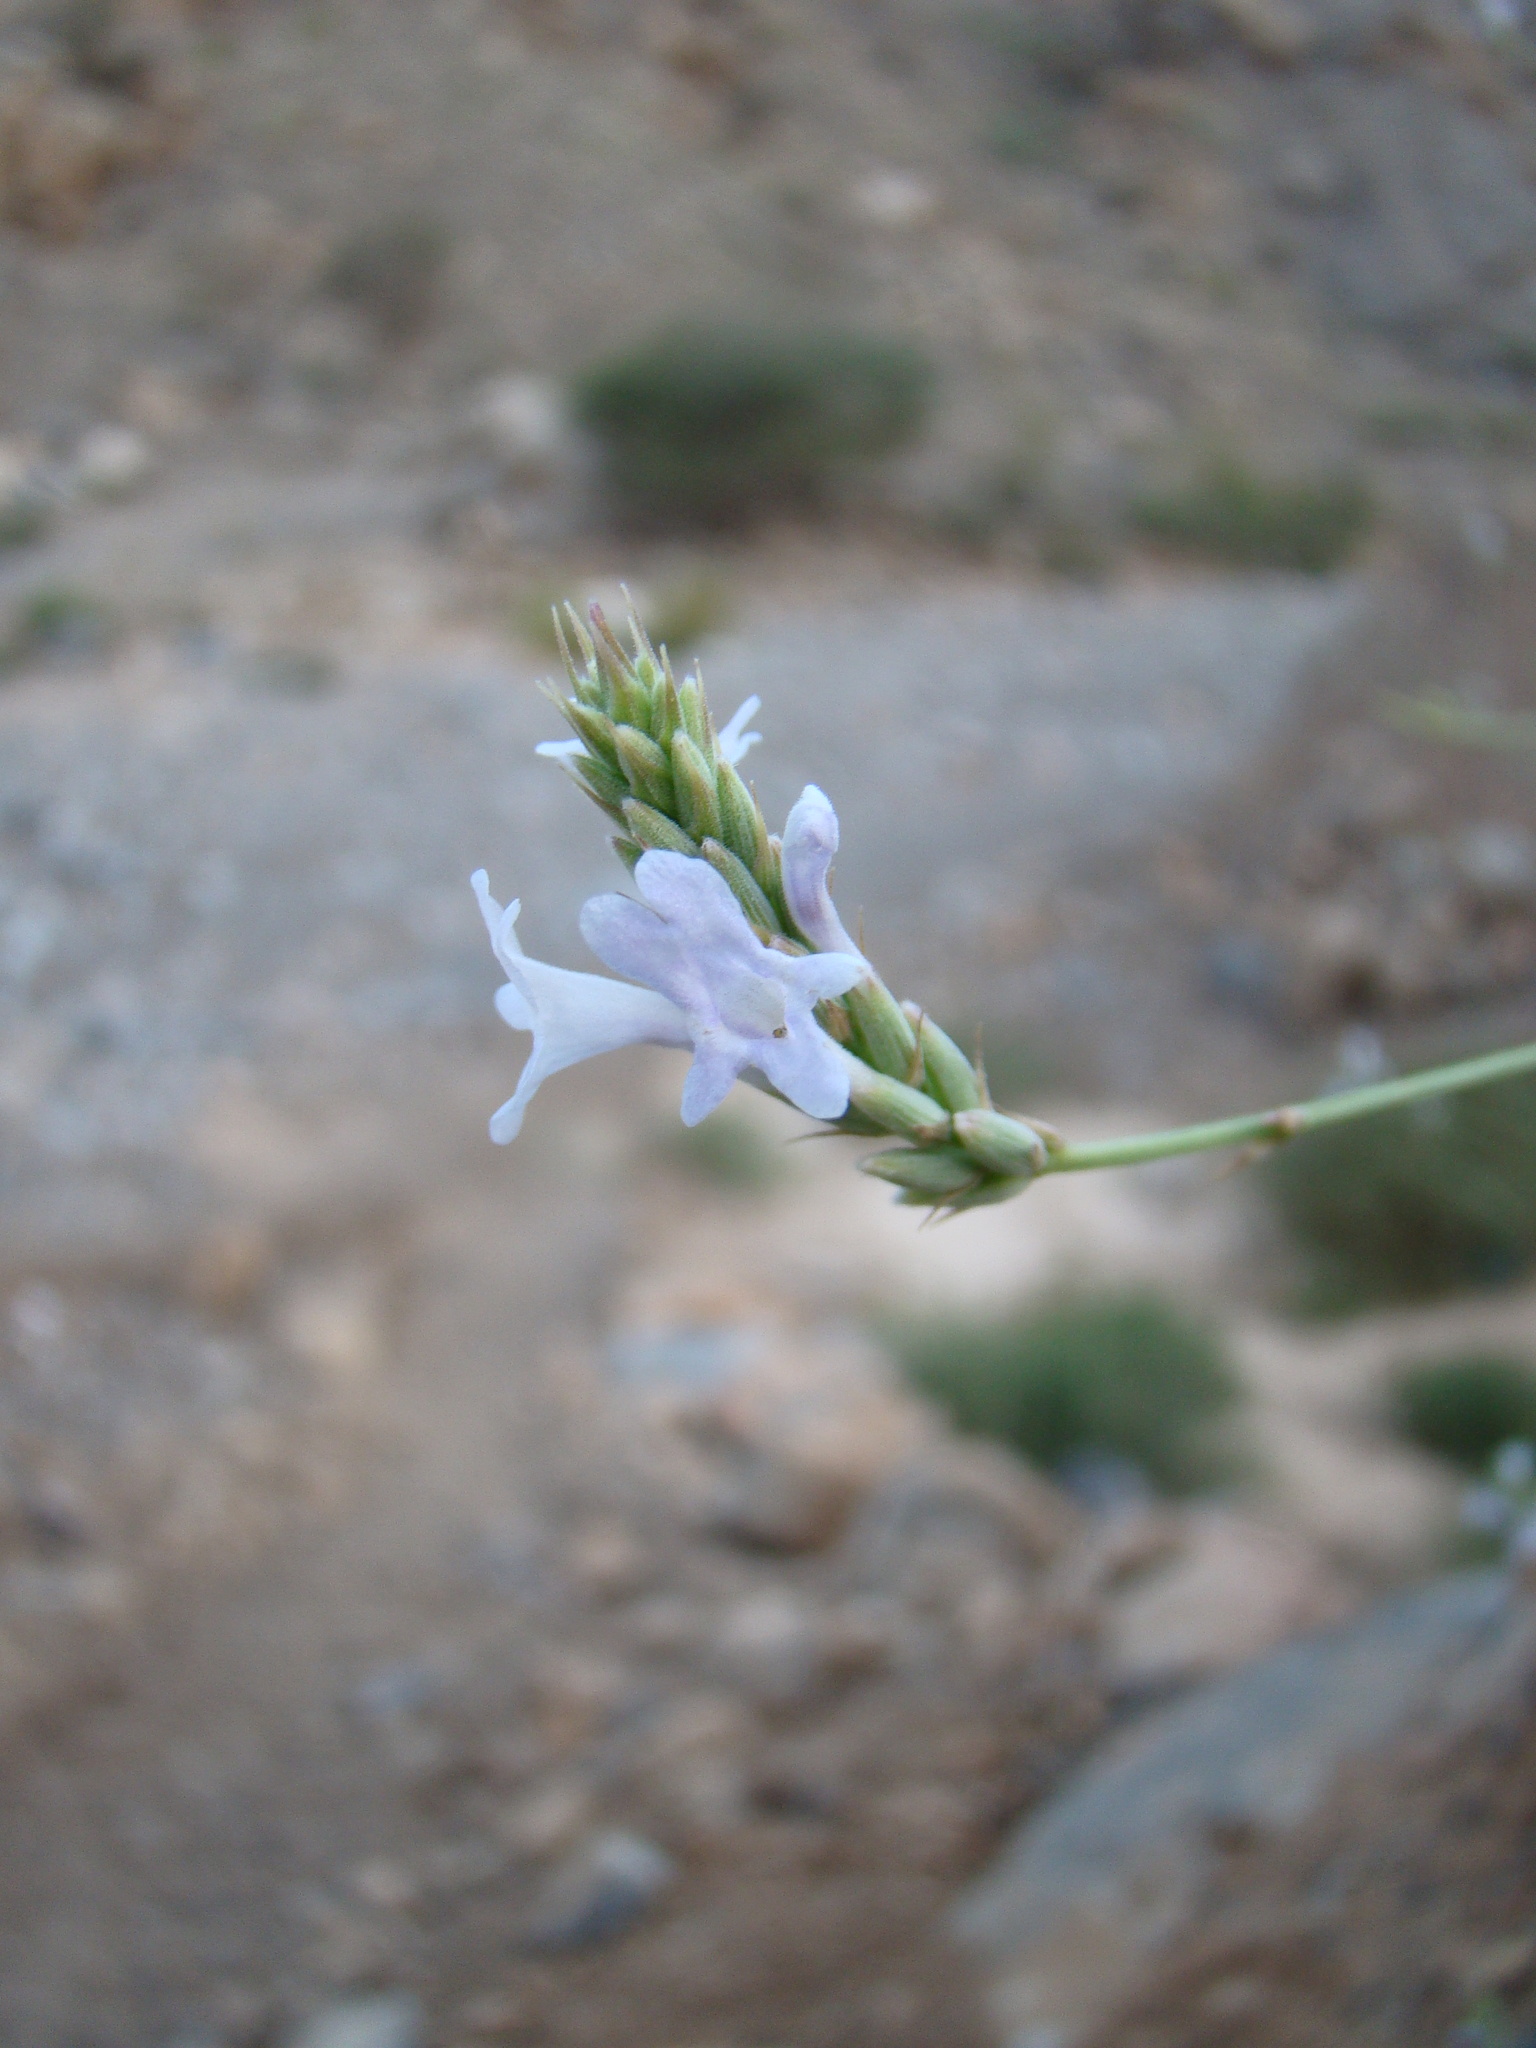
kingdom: Plantae
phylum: Tracheophyta
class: Magnoliopsida
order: Lamiales
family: Lamiaceae
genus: Lavandula
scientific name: Lavandula subnuda
